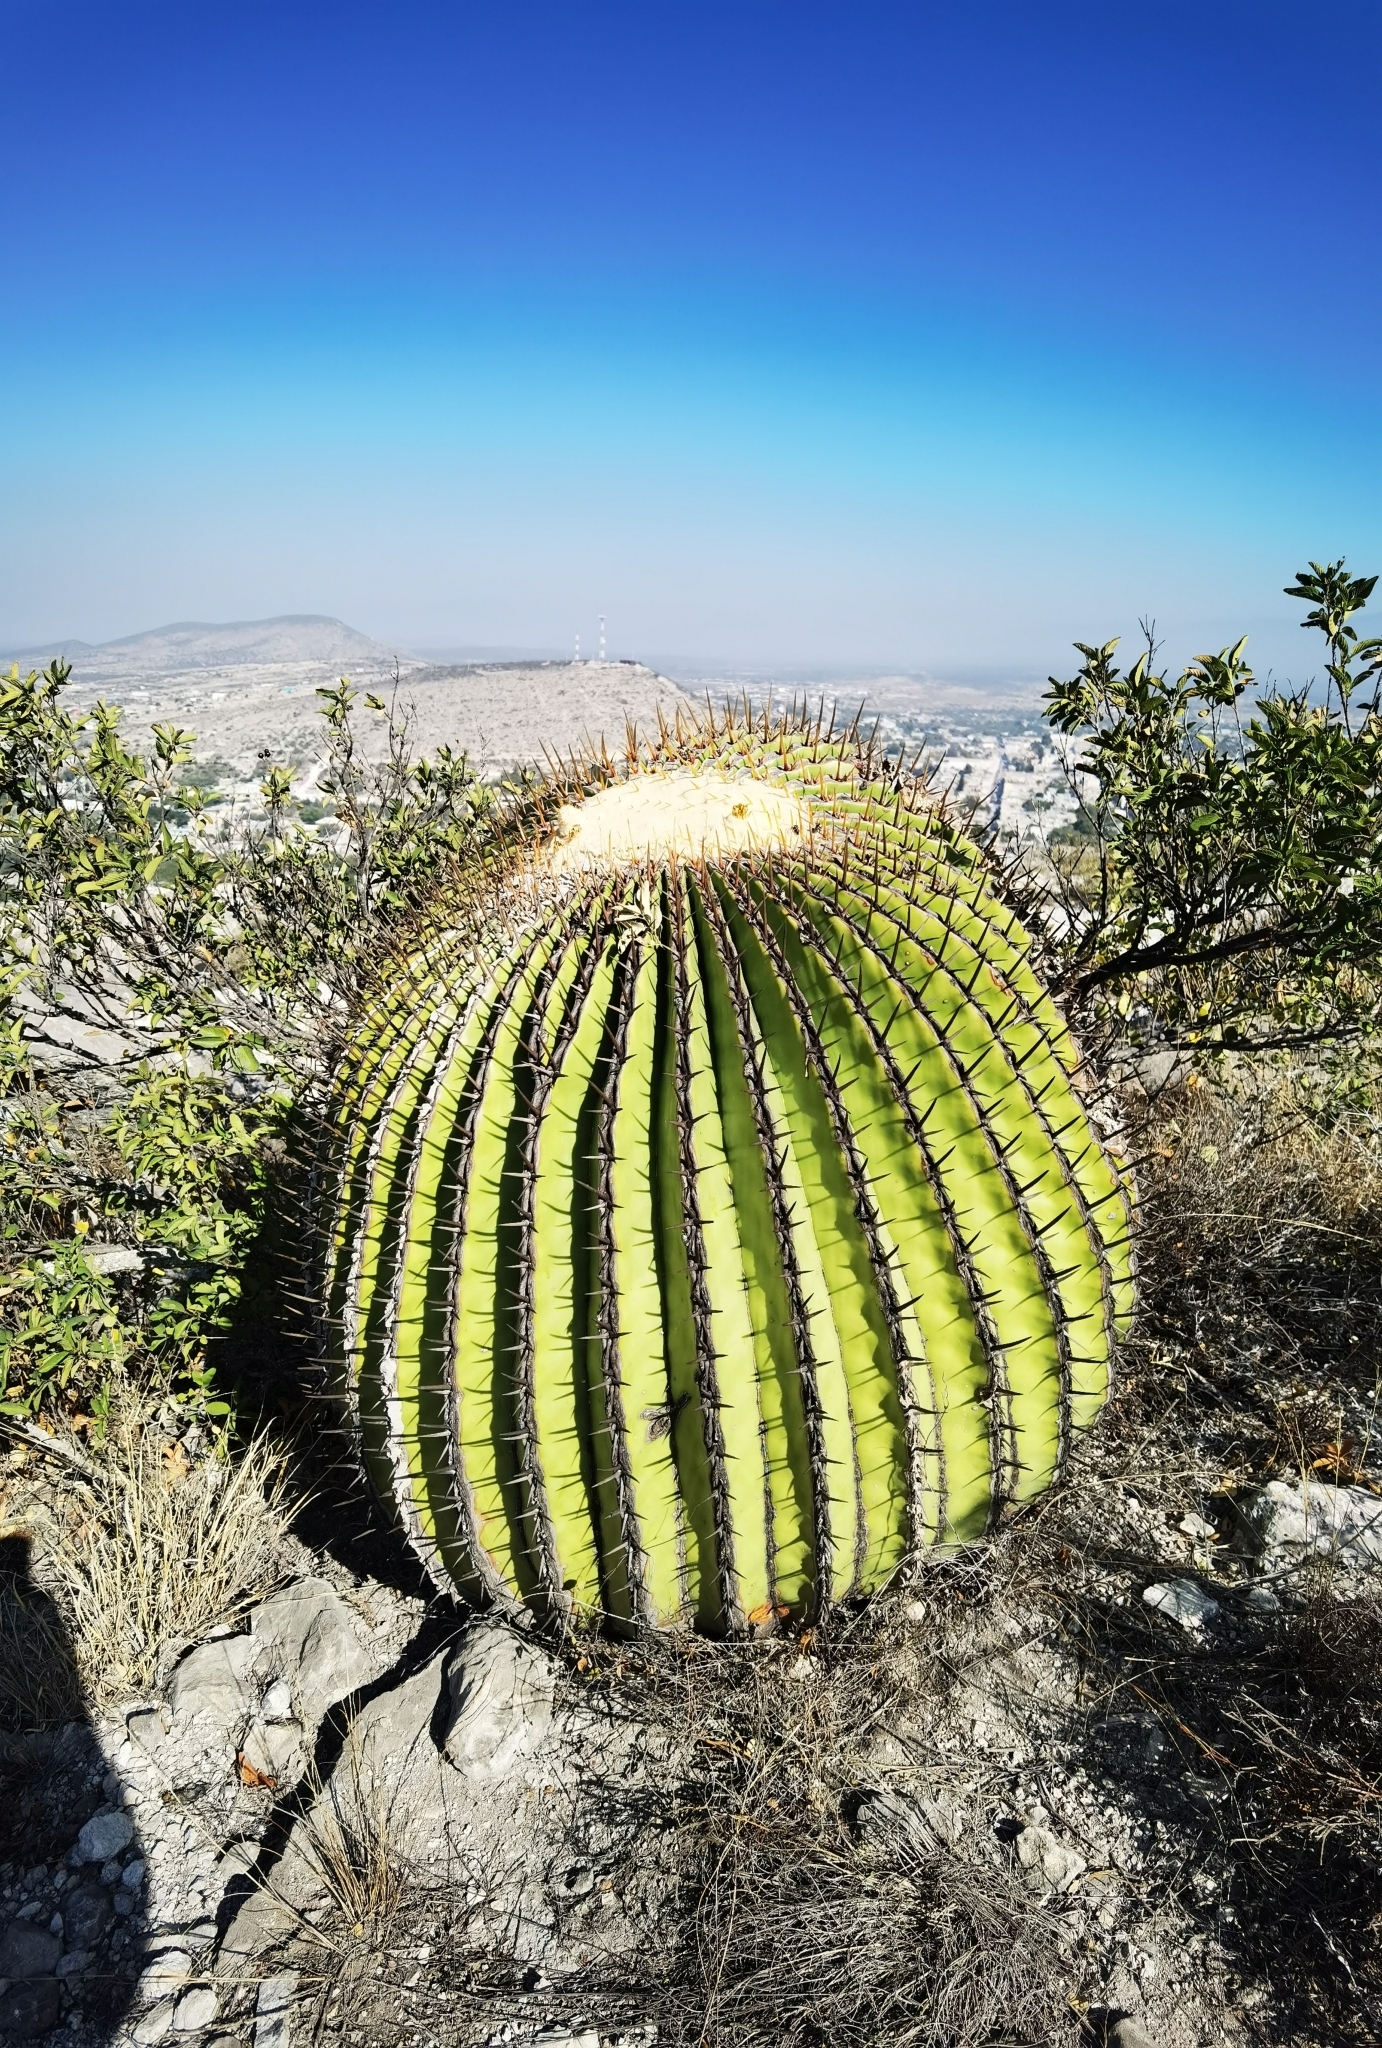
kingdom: Plantae
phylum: Tracheophyta
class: Magnoliopsida
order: Caryophyllales
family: Cactaceae
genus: Echinocactus
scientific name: Echinocactus platyacanthus
